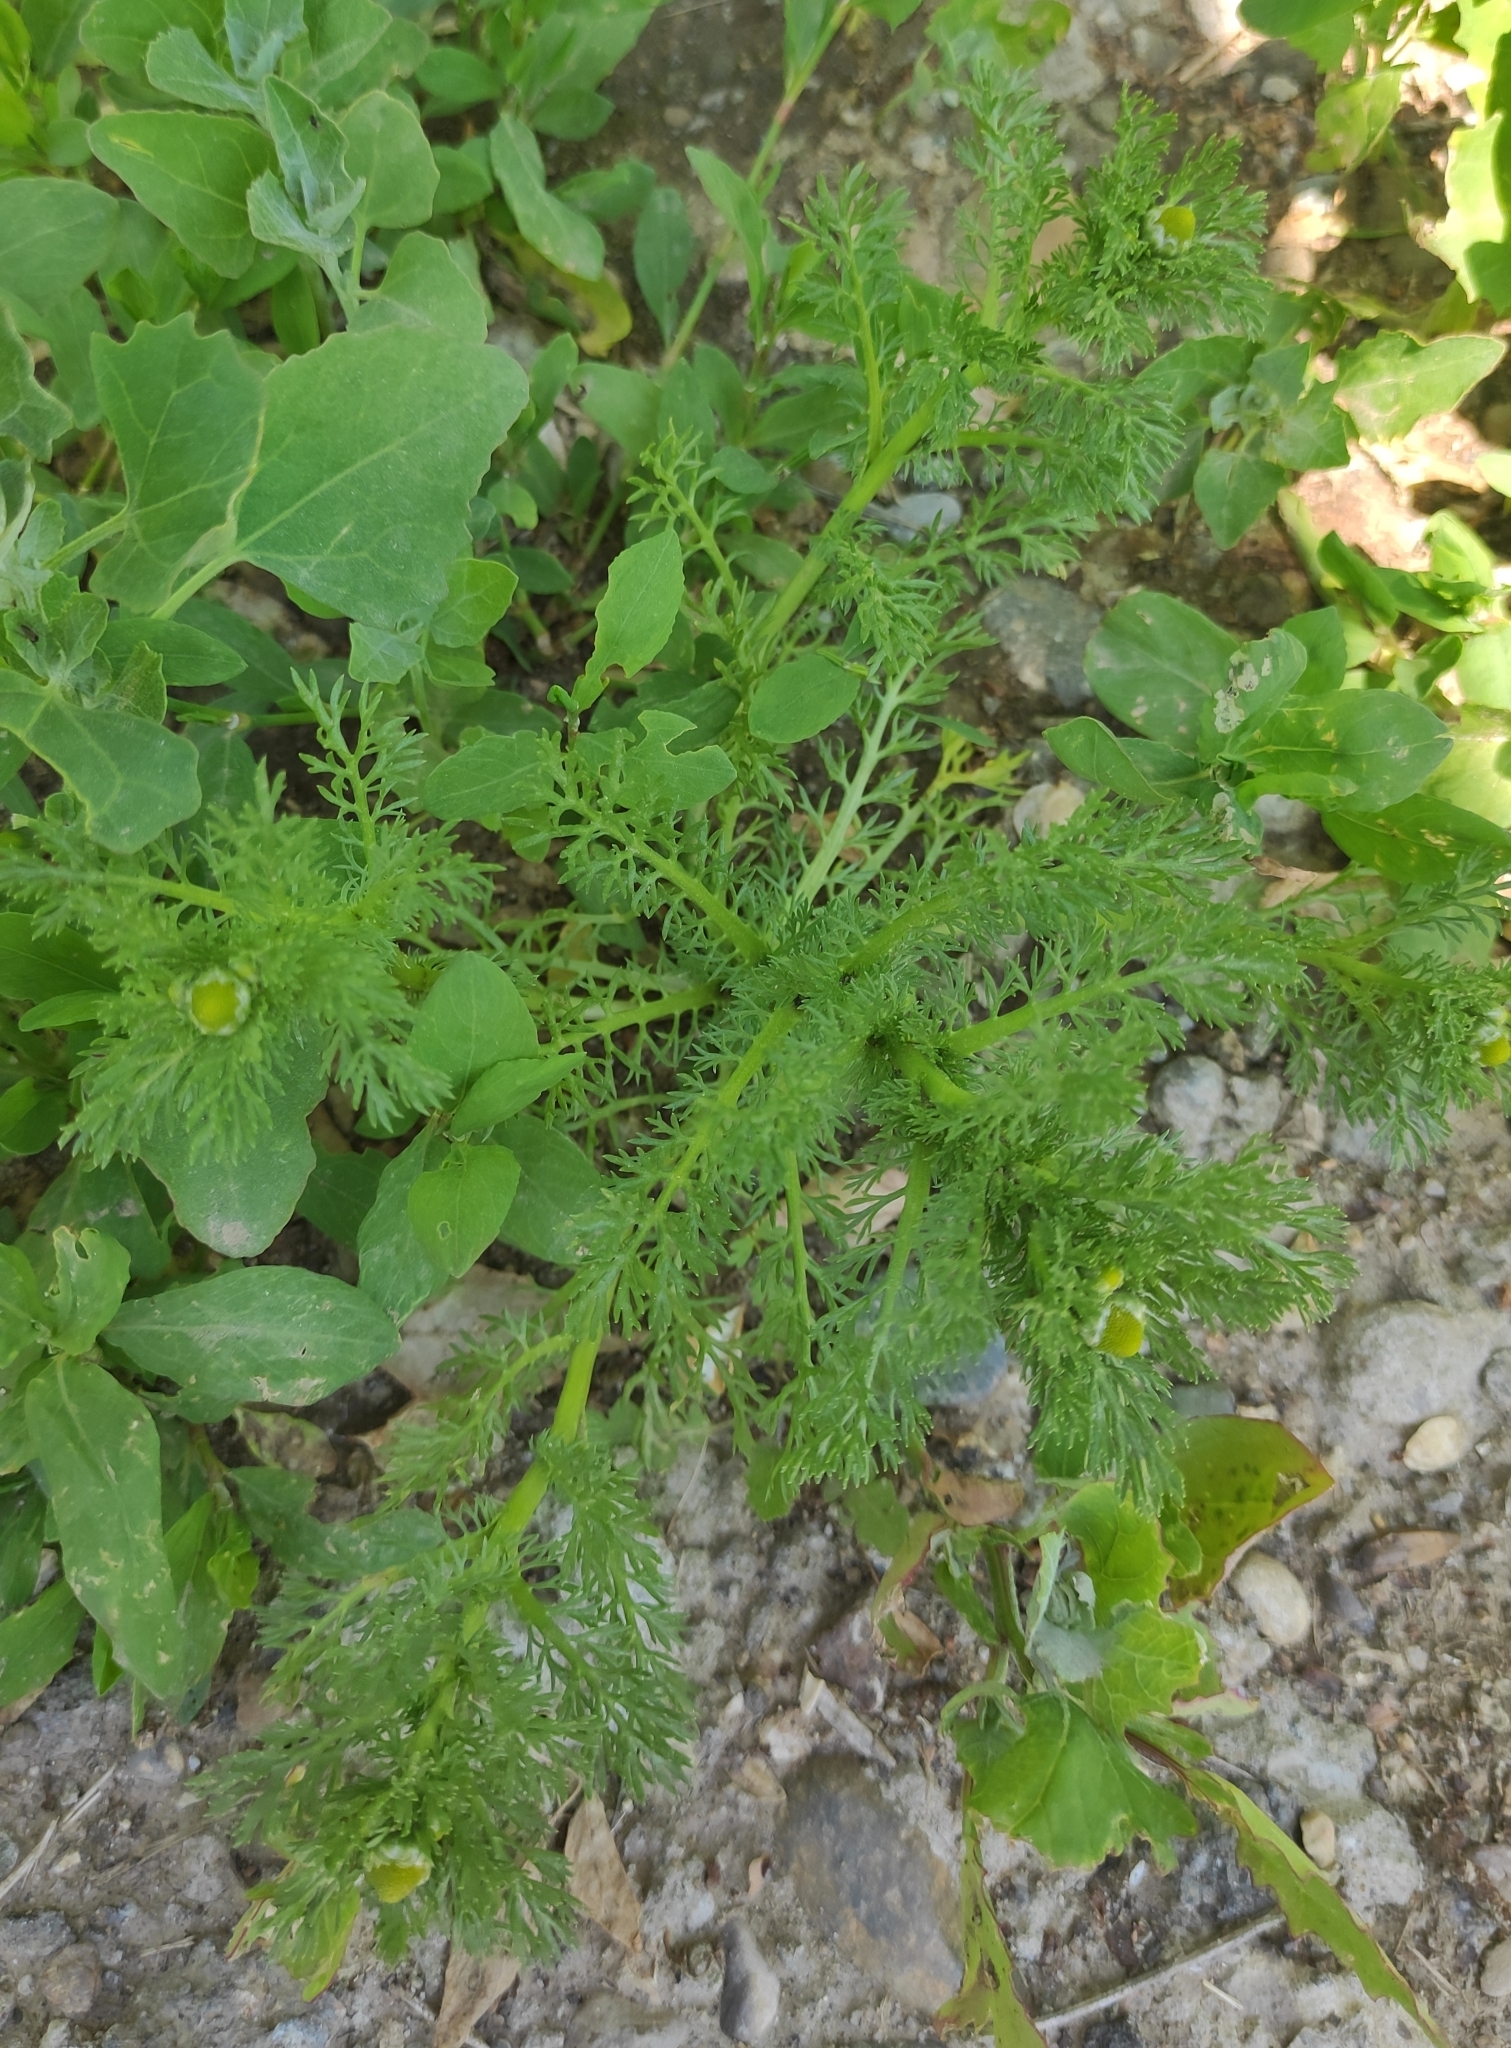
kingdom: Plantae
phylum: Tracheophyta
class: Magnoliopsida
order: Asterales
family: Asteraceae
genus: Matricaria
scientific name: Matricaria discoidea
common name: Disc mayweed
